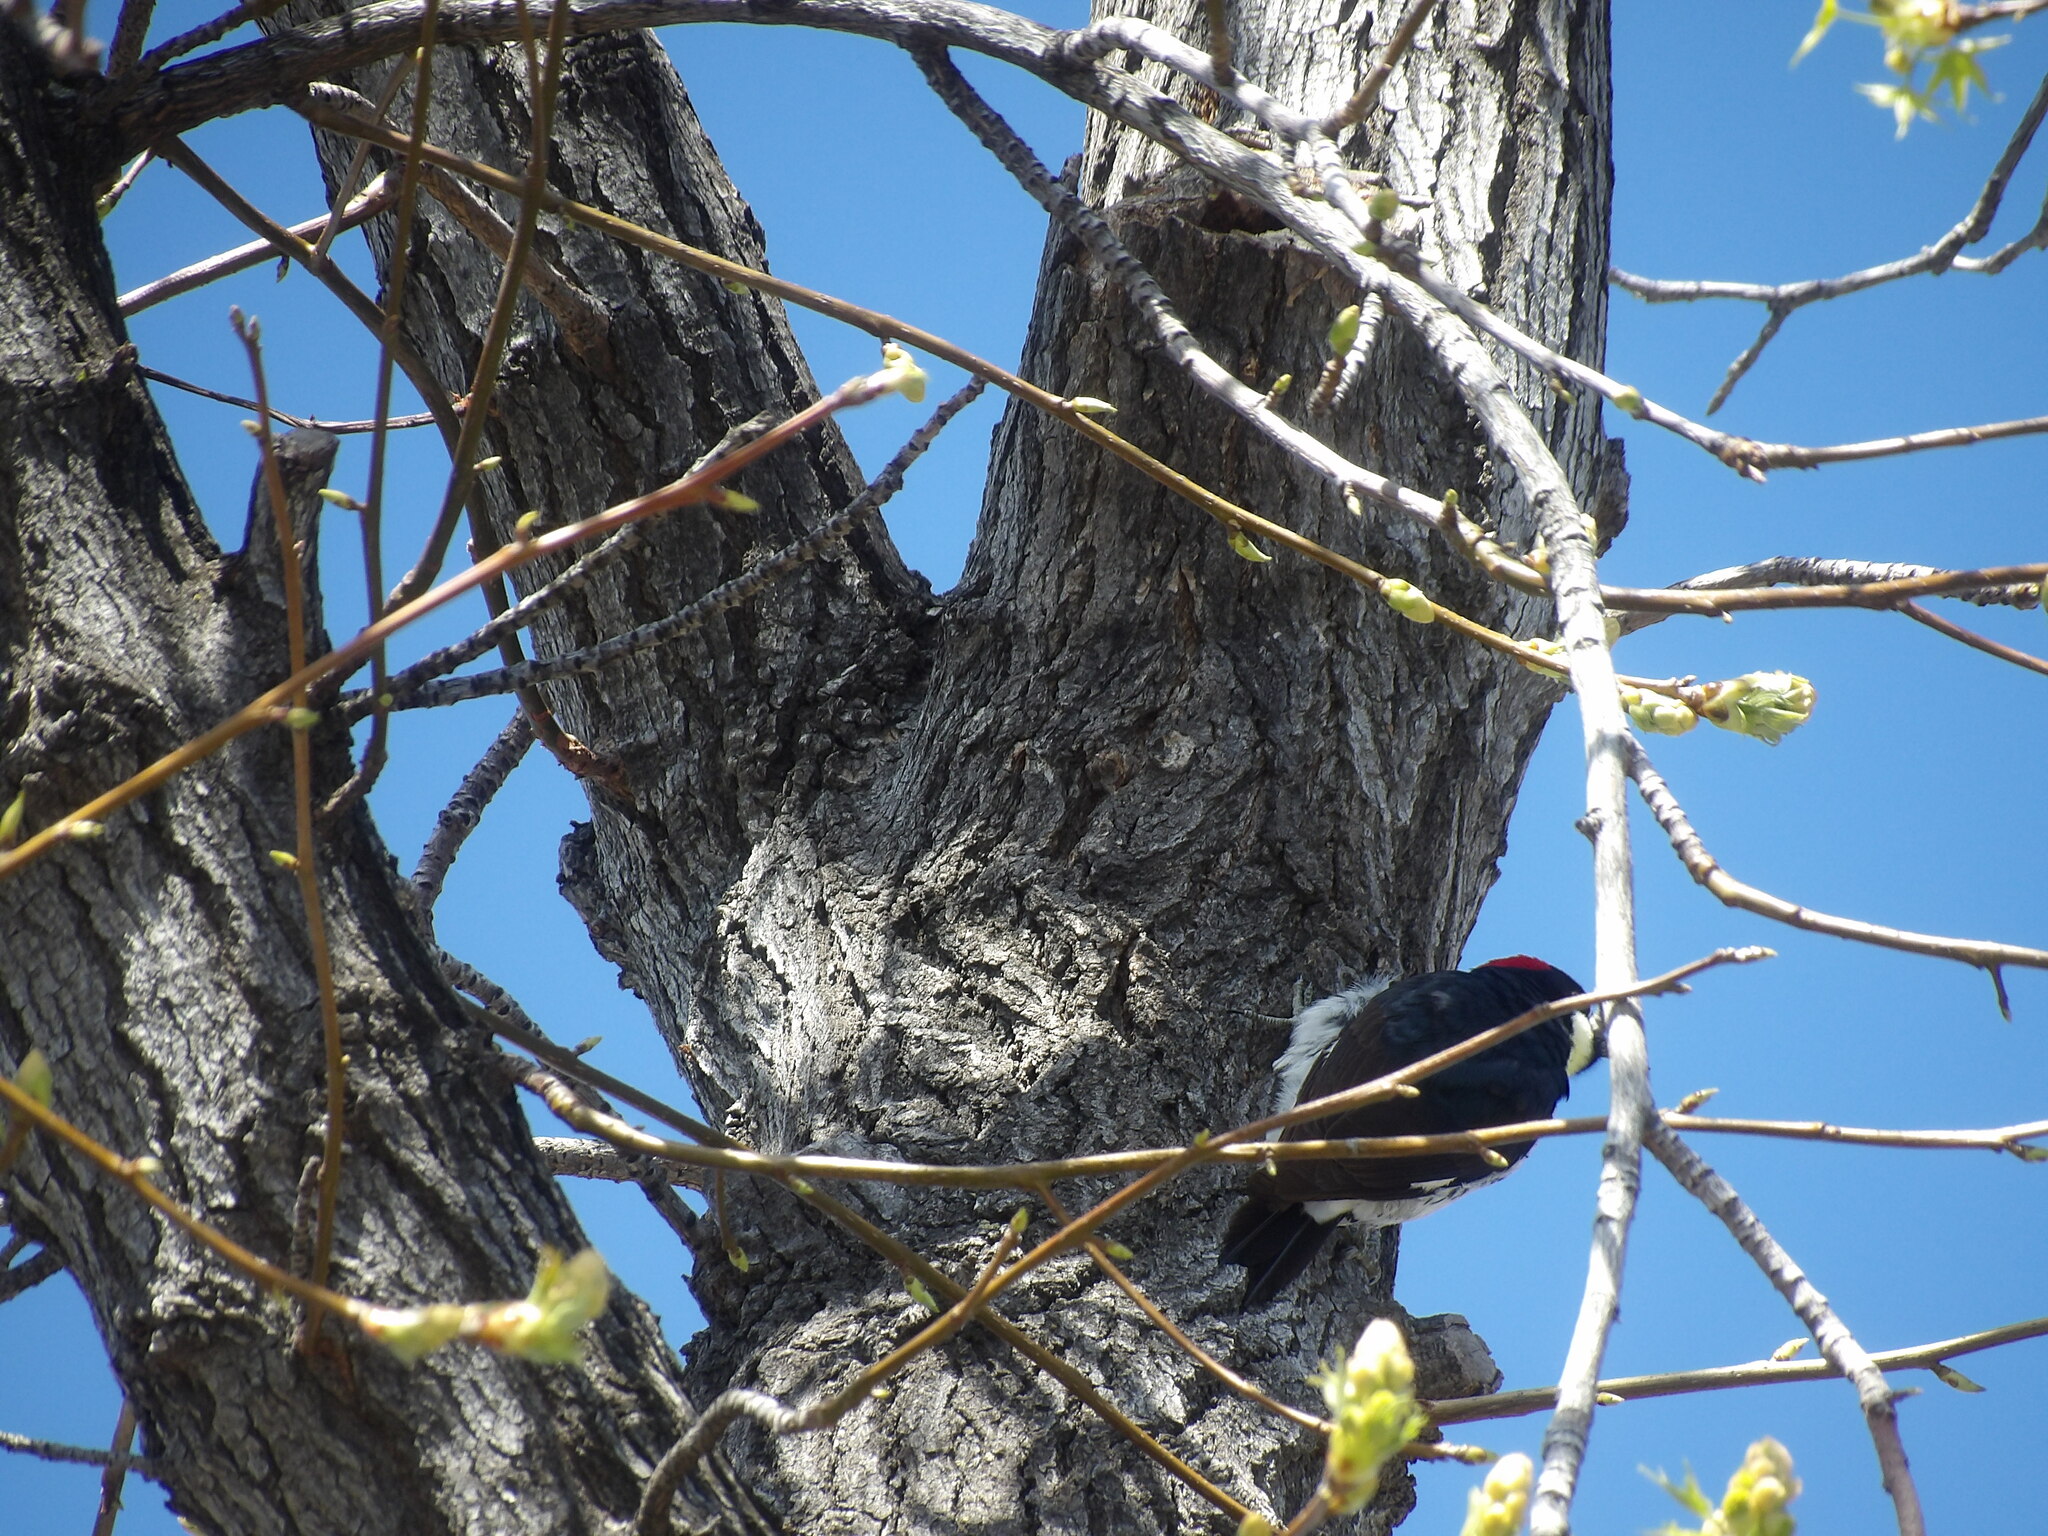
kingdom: Animalia
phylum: Chordata
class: Aves
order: Piciformes
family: Picidae
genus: Melanerpes
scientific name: Melanerpes formicivorus
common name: Acorn woodpecker
